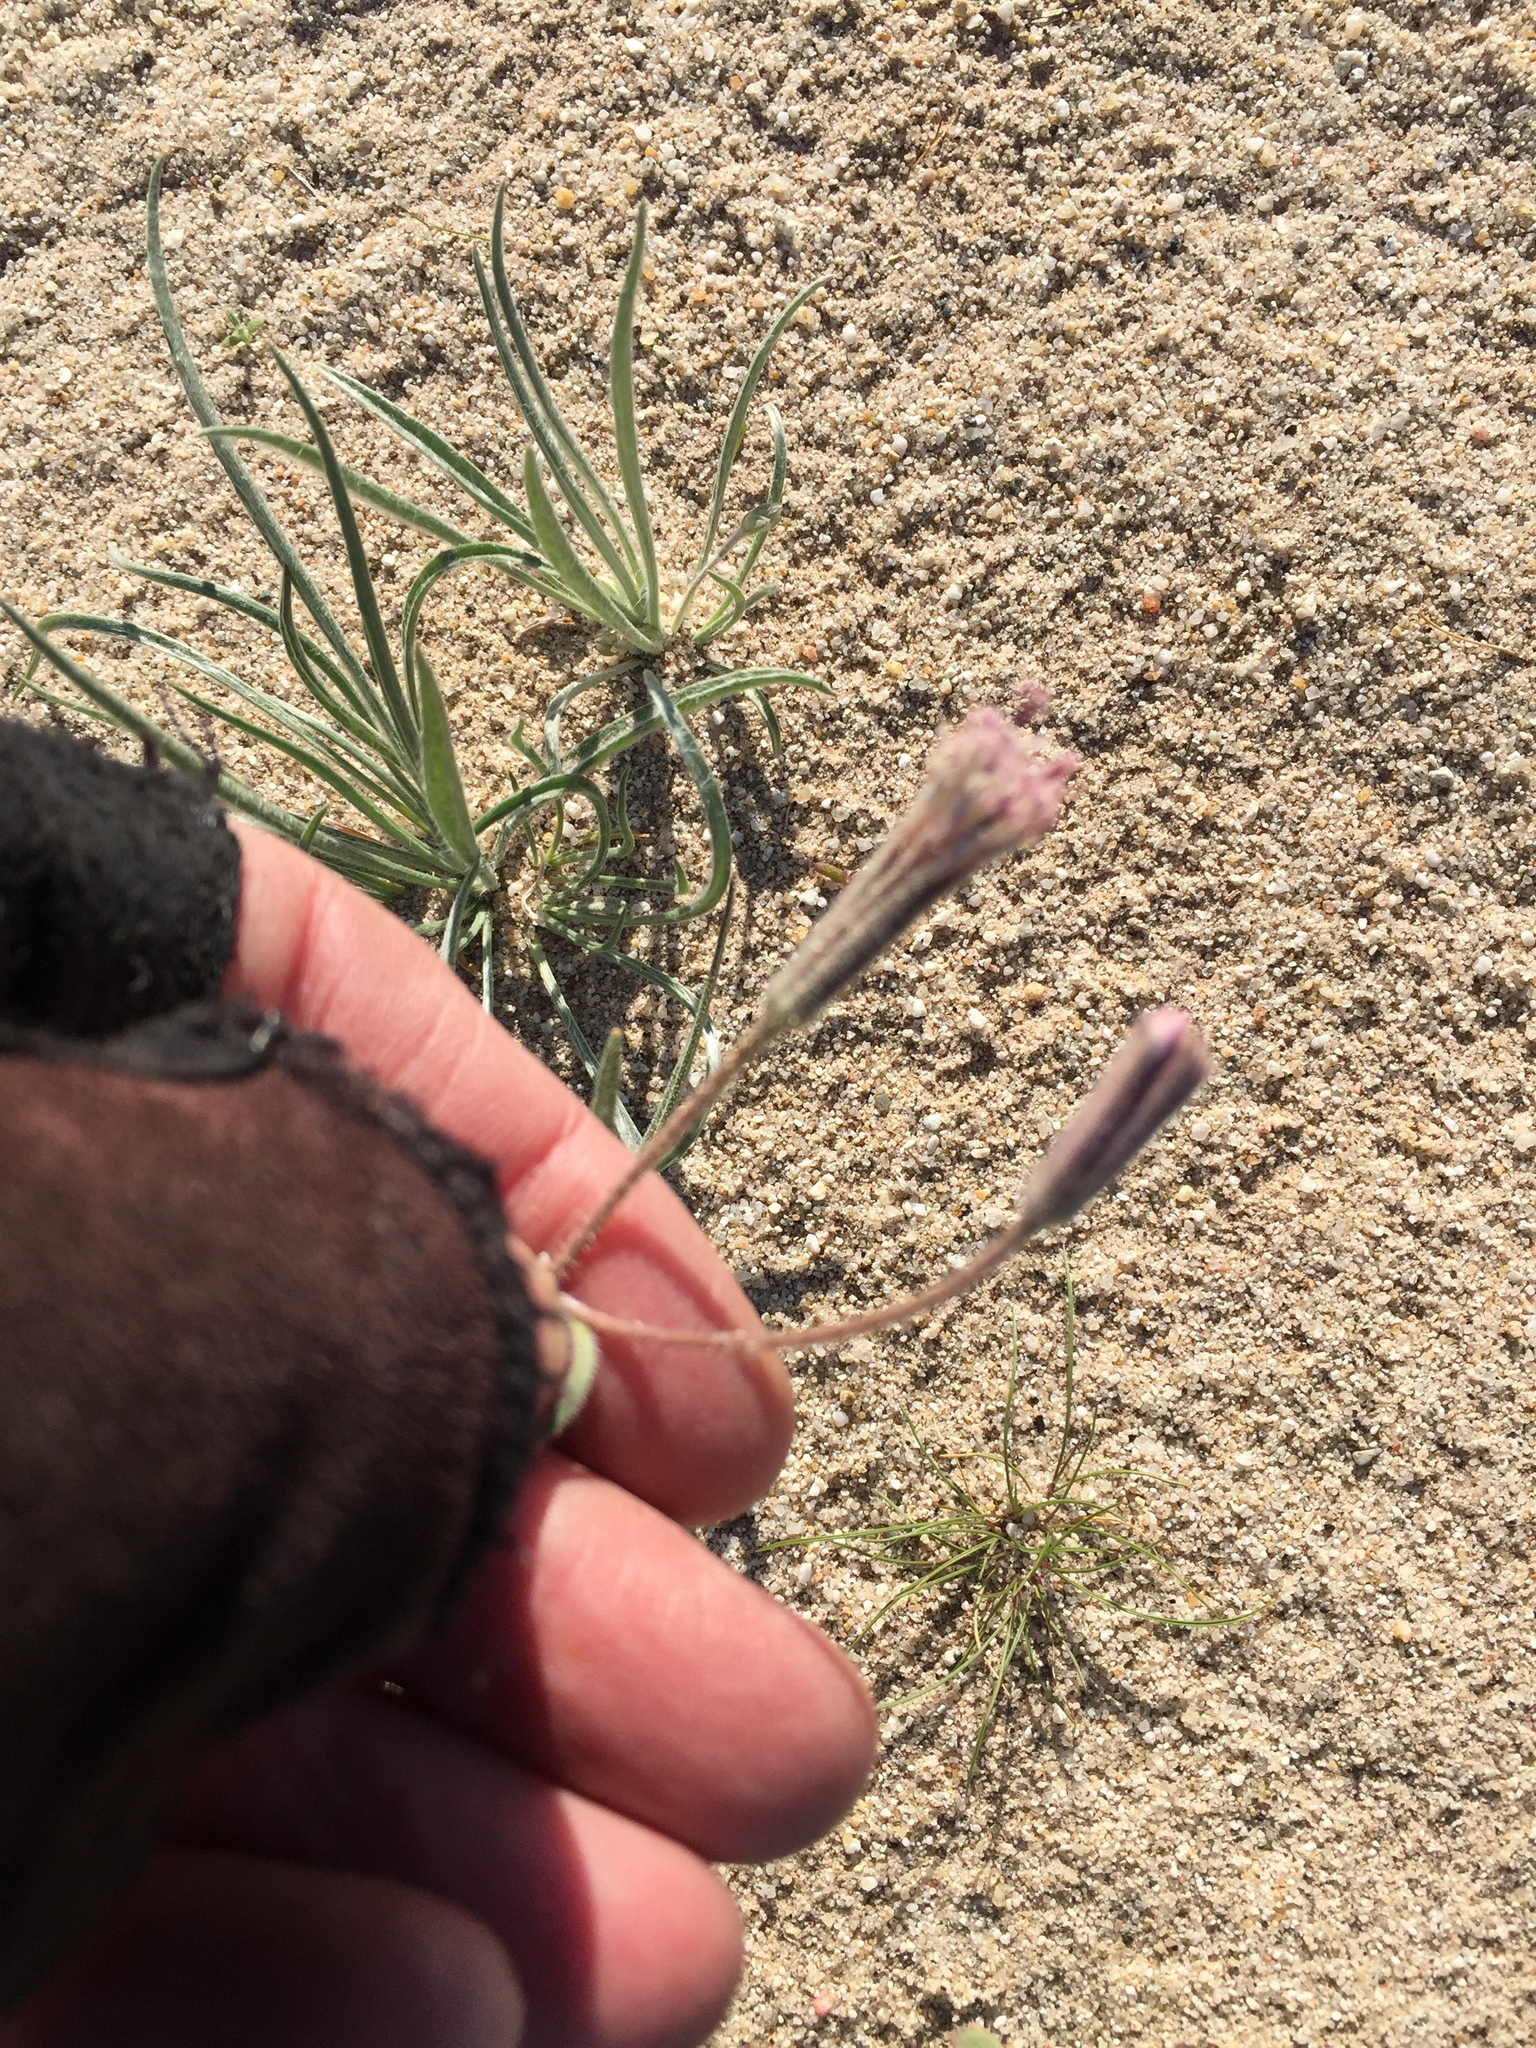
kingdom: Plantae
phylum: Tracheophyta
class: Magnoliopsida
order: Asterales
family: Asteraceae
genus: Palafoxia
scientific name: Palafoxia arida
